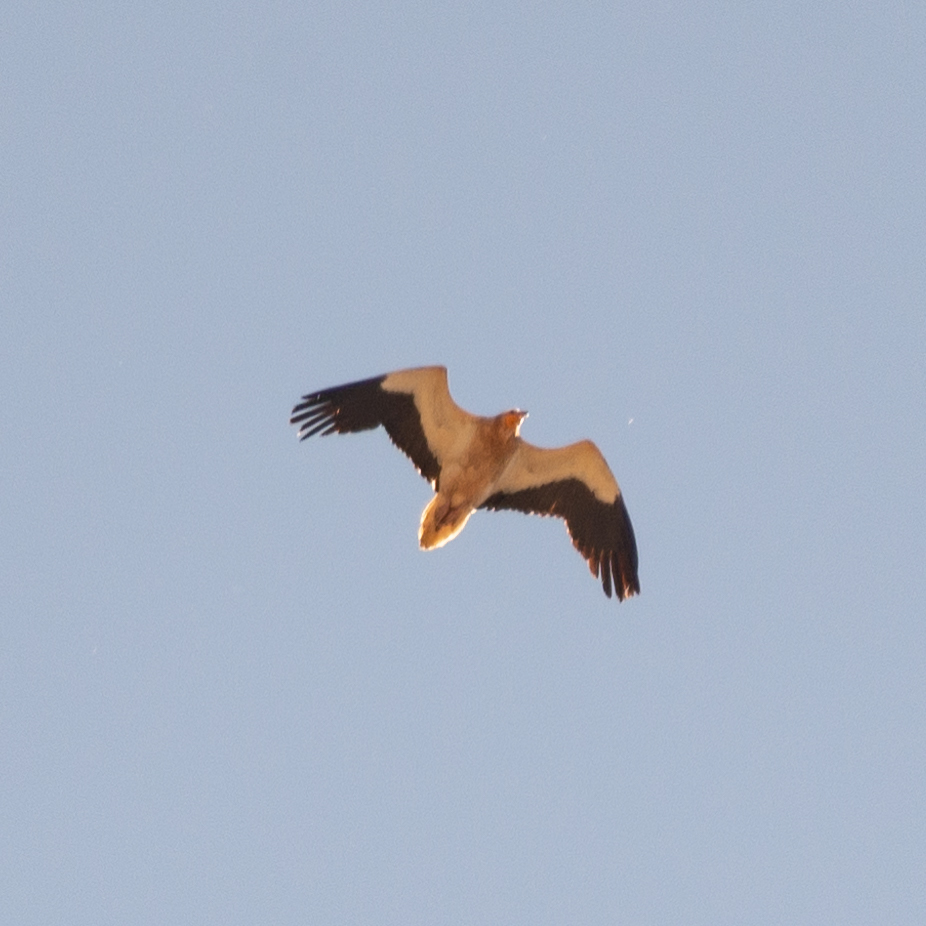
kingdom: Animalia
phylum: Chordata
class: Aves
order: Accipitriformes
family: Accipitridae
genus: Neophron
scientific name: Neophron percnopterus
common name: Egyptian vulture
